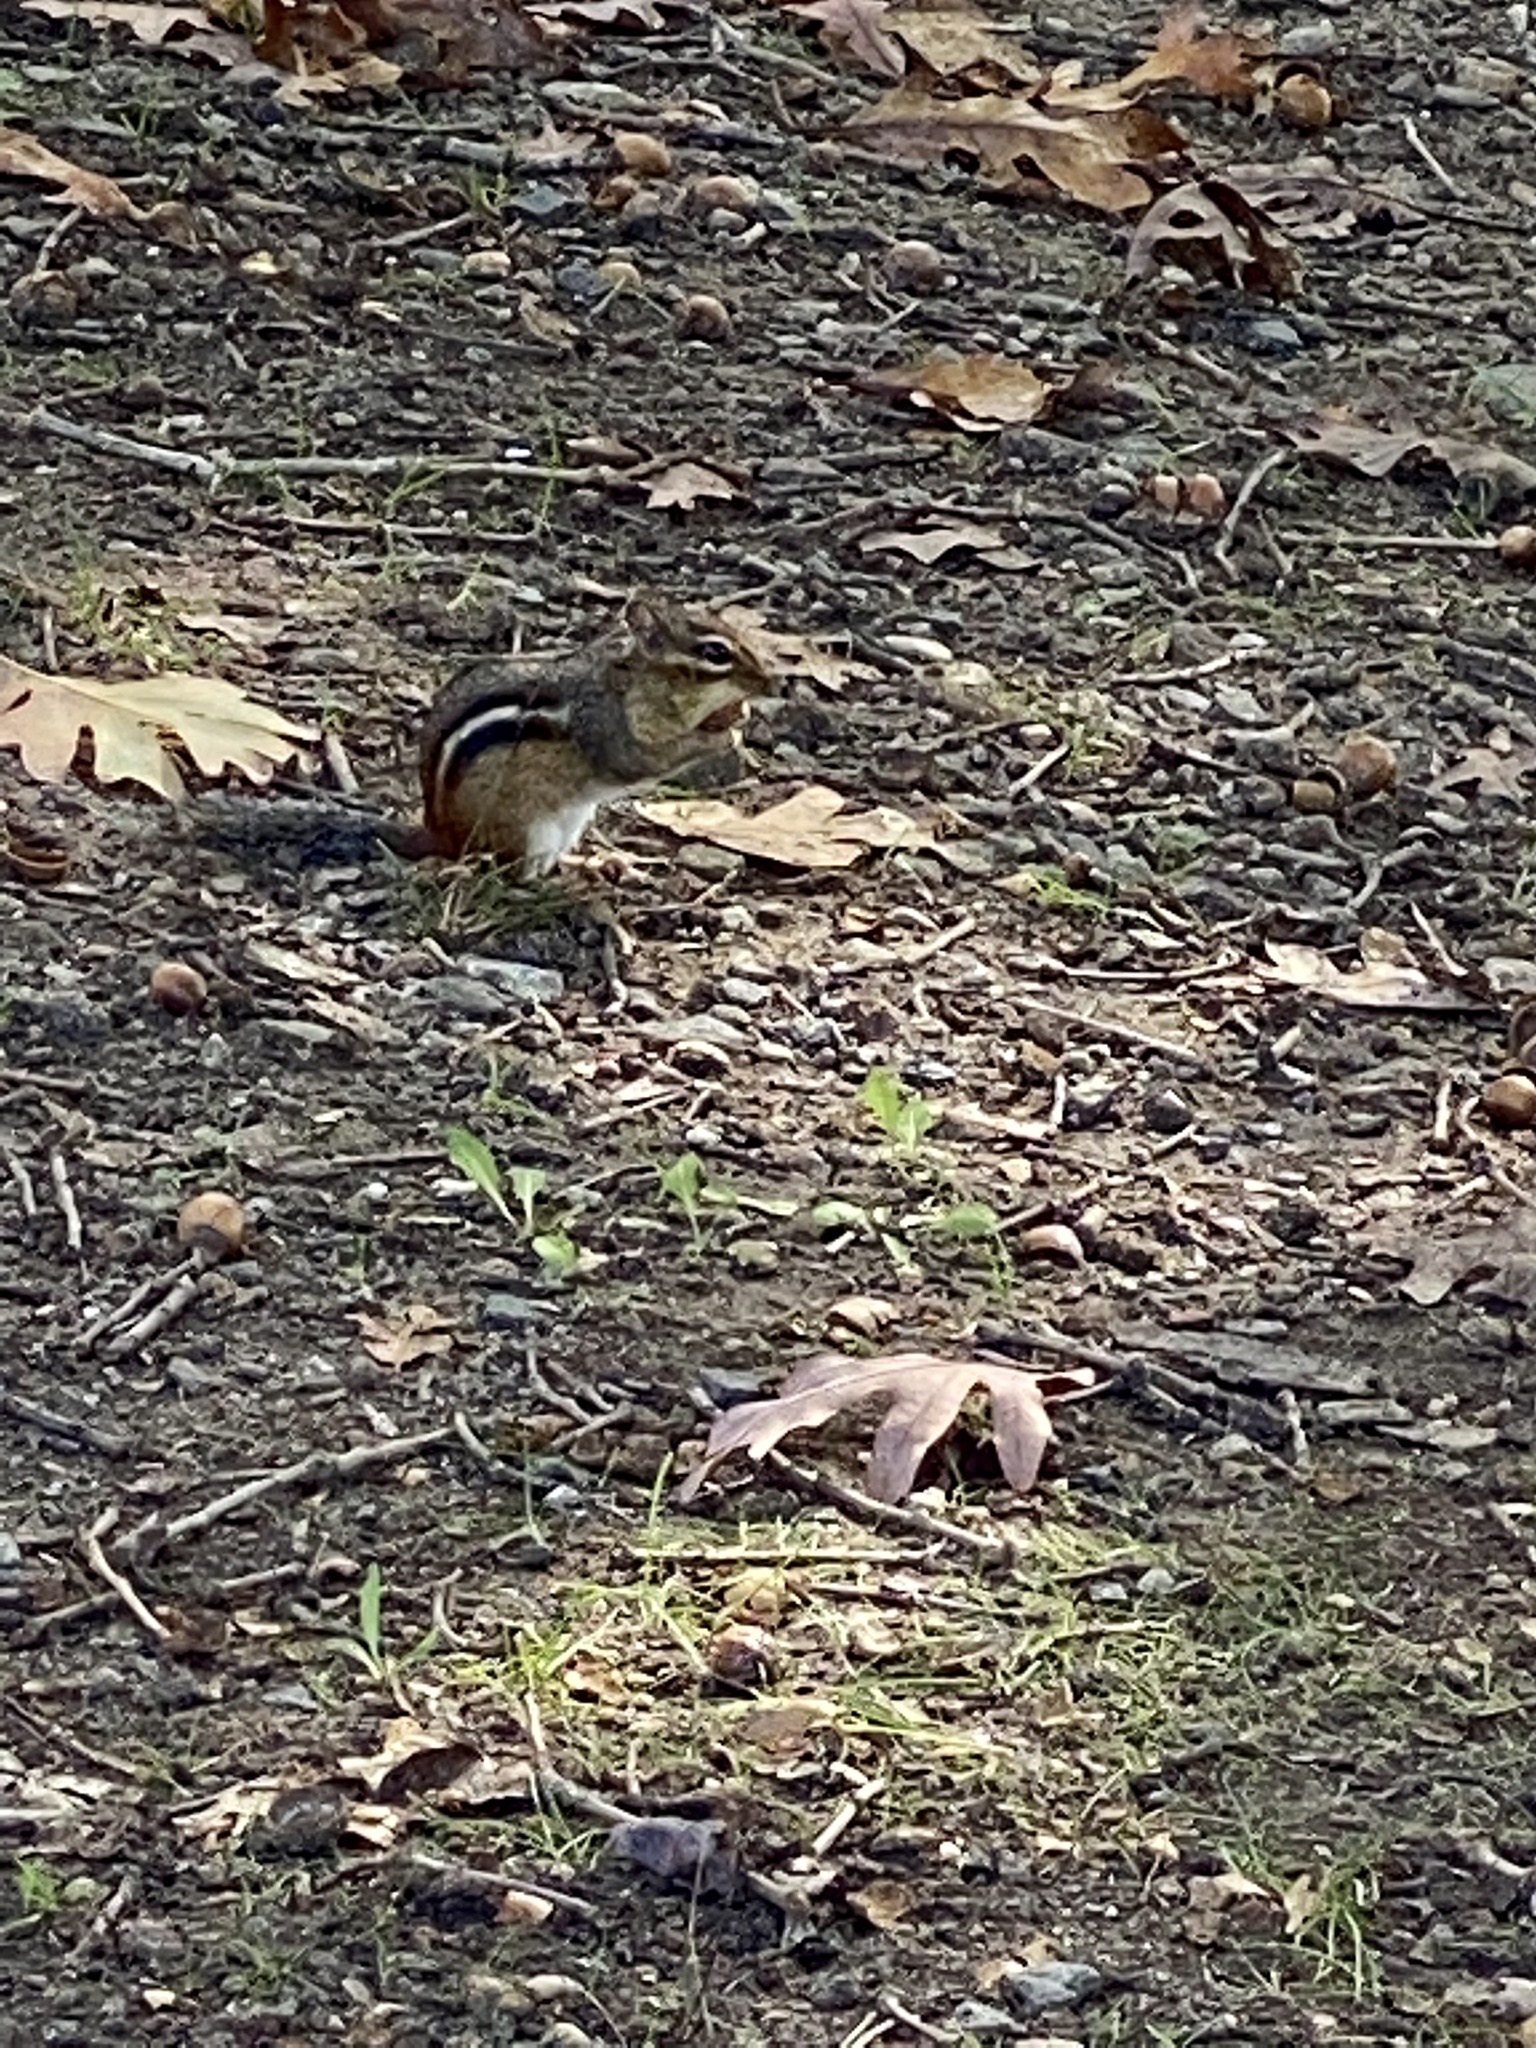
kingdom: Animalia
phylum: Chordata
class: Mammalia
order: Rodentia
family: Sciuridae
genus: Tamias
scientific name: Tamias striatus
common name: Eastern chipmunk
